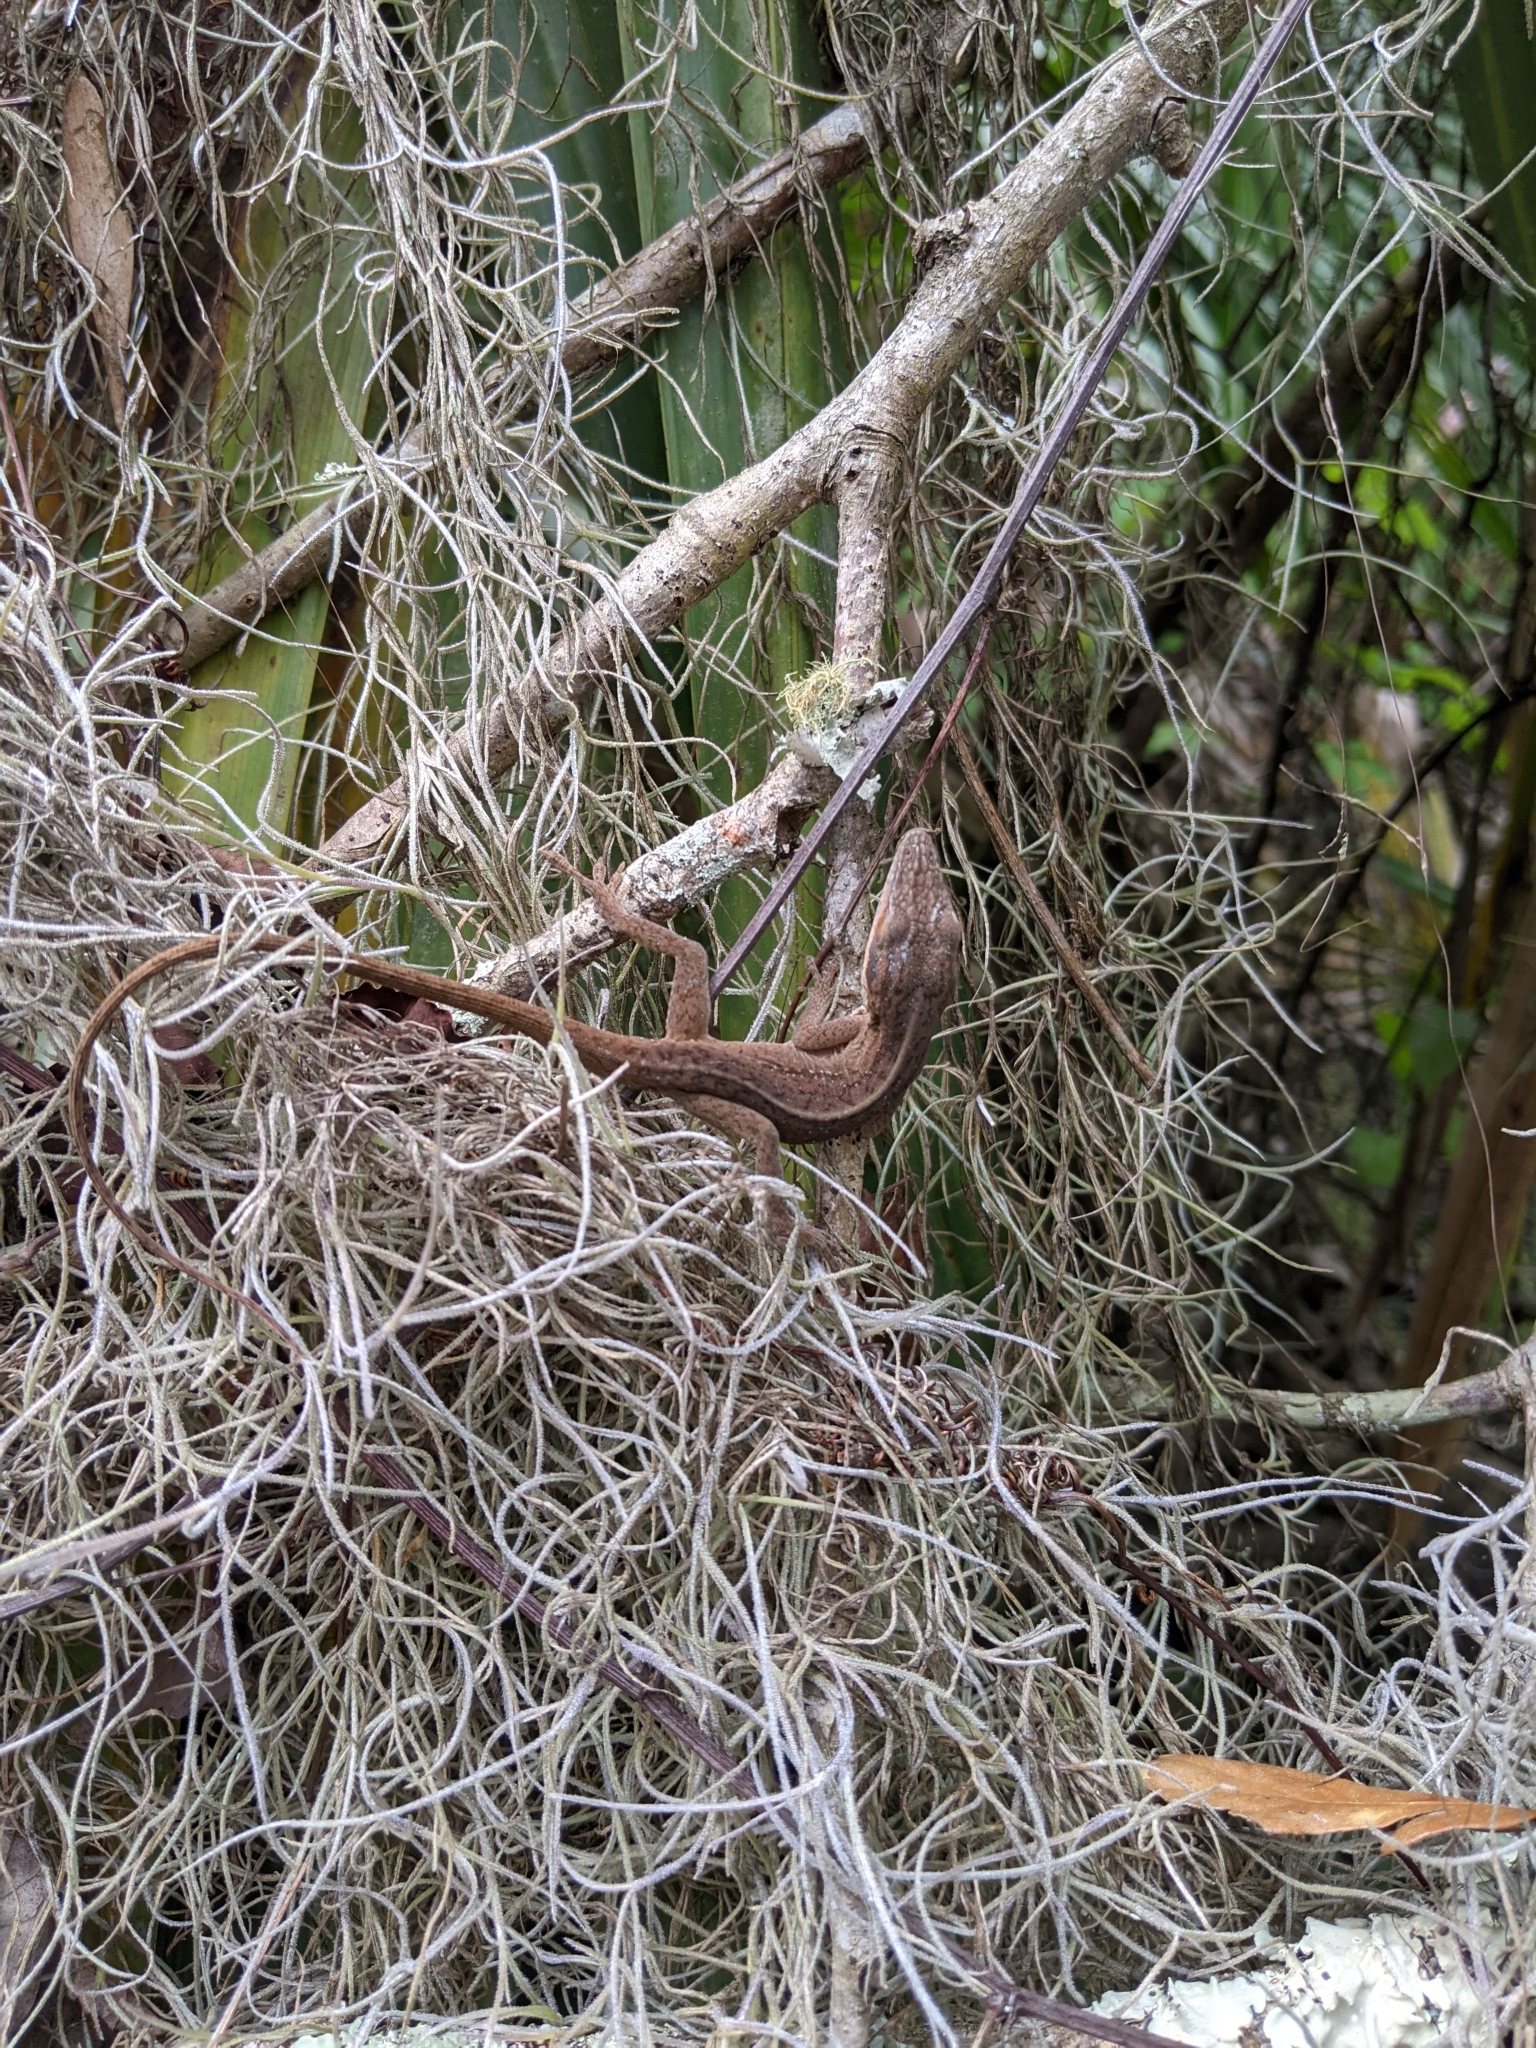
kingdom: Animalia
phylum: Chordata
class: Squamata
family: Dactyloidae
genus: Anolis
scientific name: Anolis carolinensis
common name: Green anole
